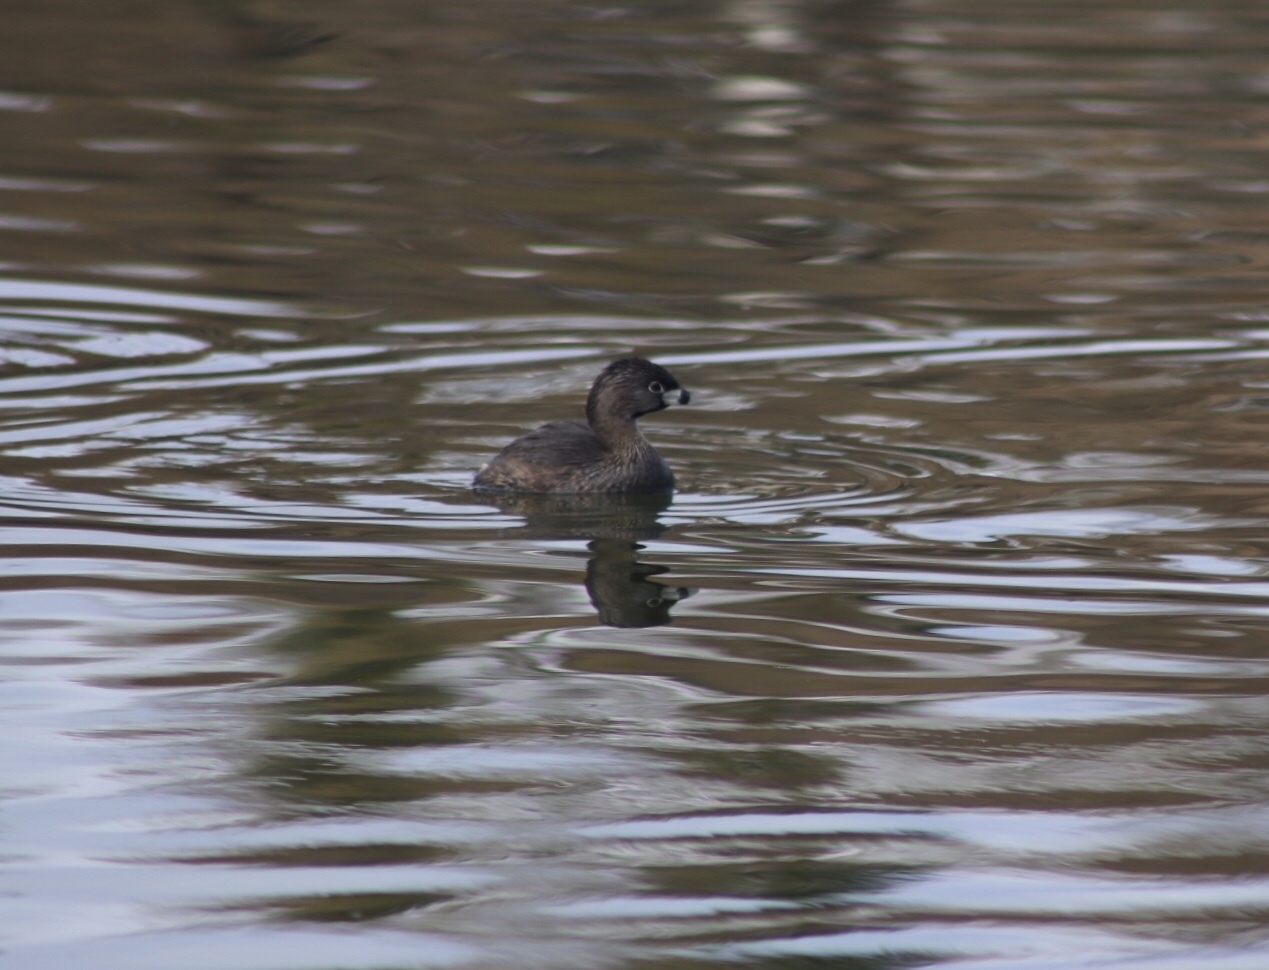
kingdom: Animalia
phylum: Chordata
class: Aves
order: Podicipediformes
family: Podicipedidae
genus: Podilymbus
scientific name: Podilymbus podiceps
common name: Pied-billed grebe
